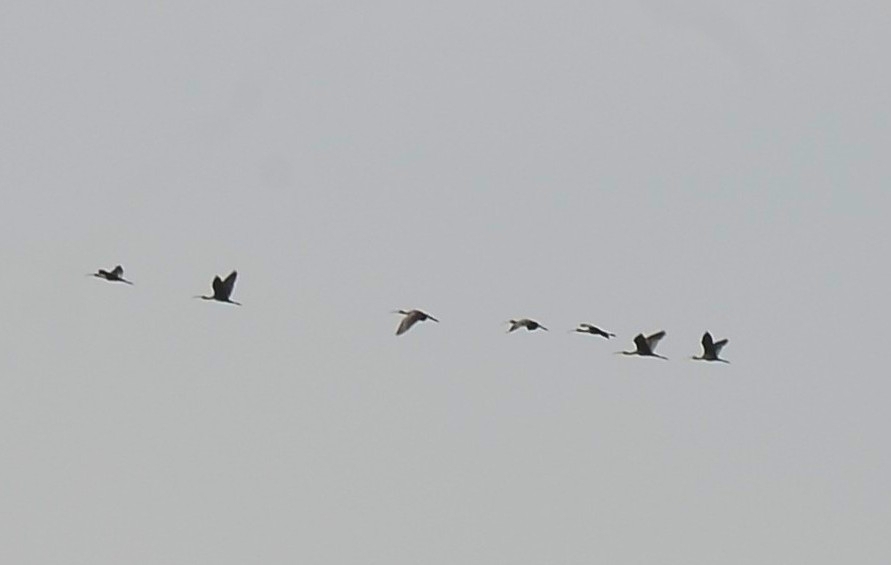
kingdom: Animalia
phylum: Chordata
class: Aves
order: Pelecaniformes
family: Threskiornithidae
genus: Plegadis
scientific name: Plegadis falcinellus
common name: Glossy ibis
